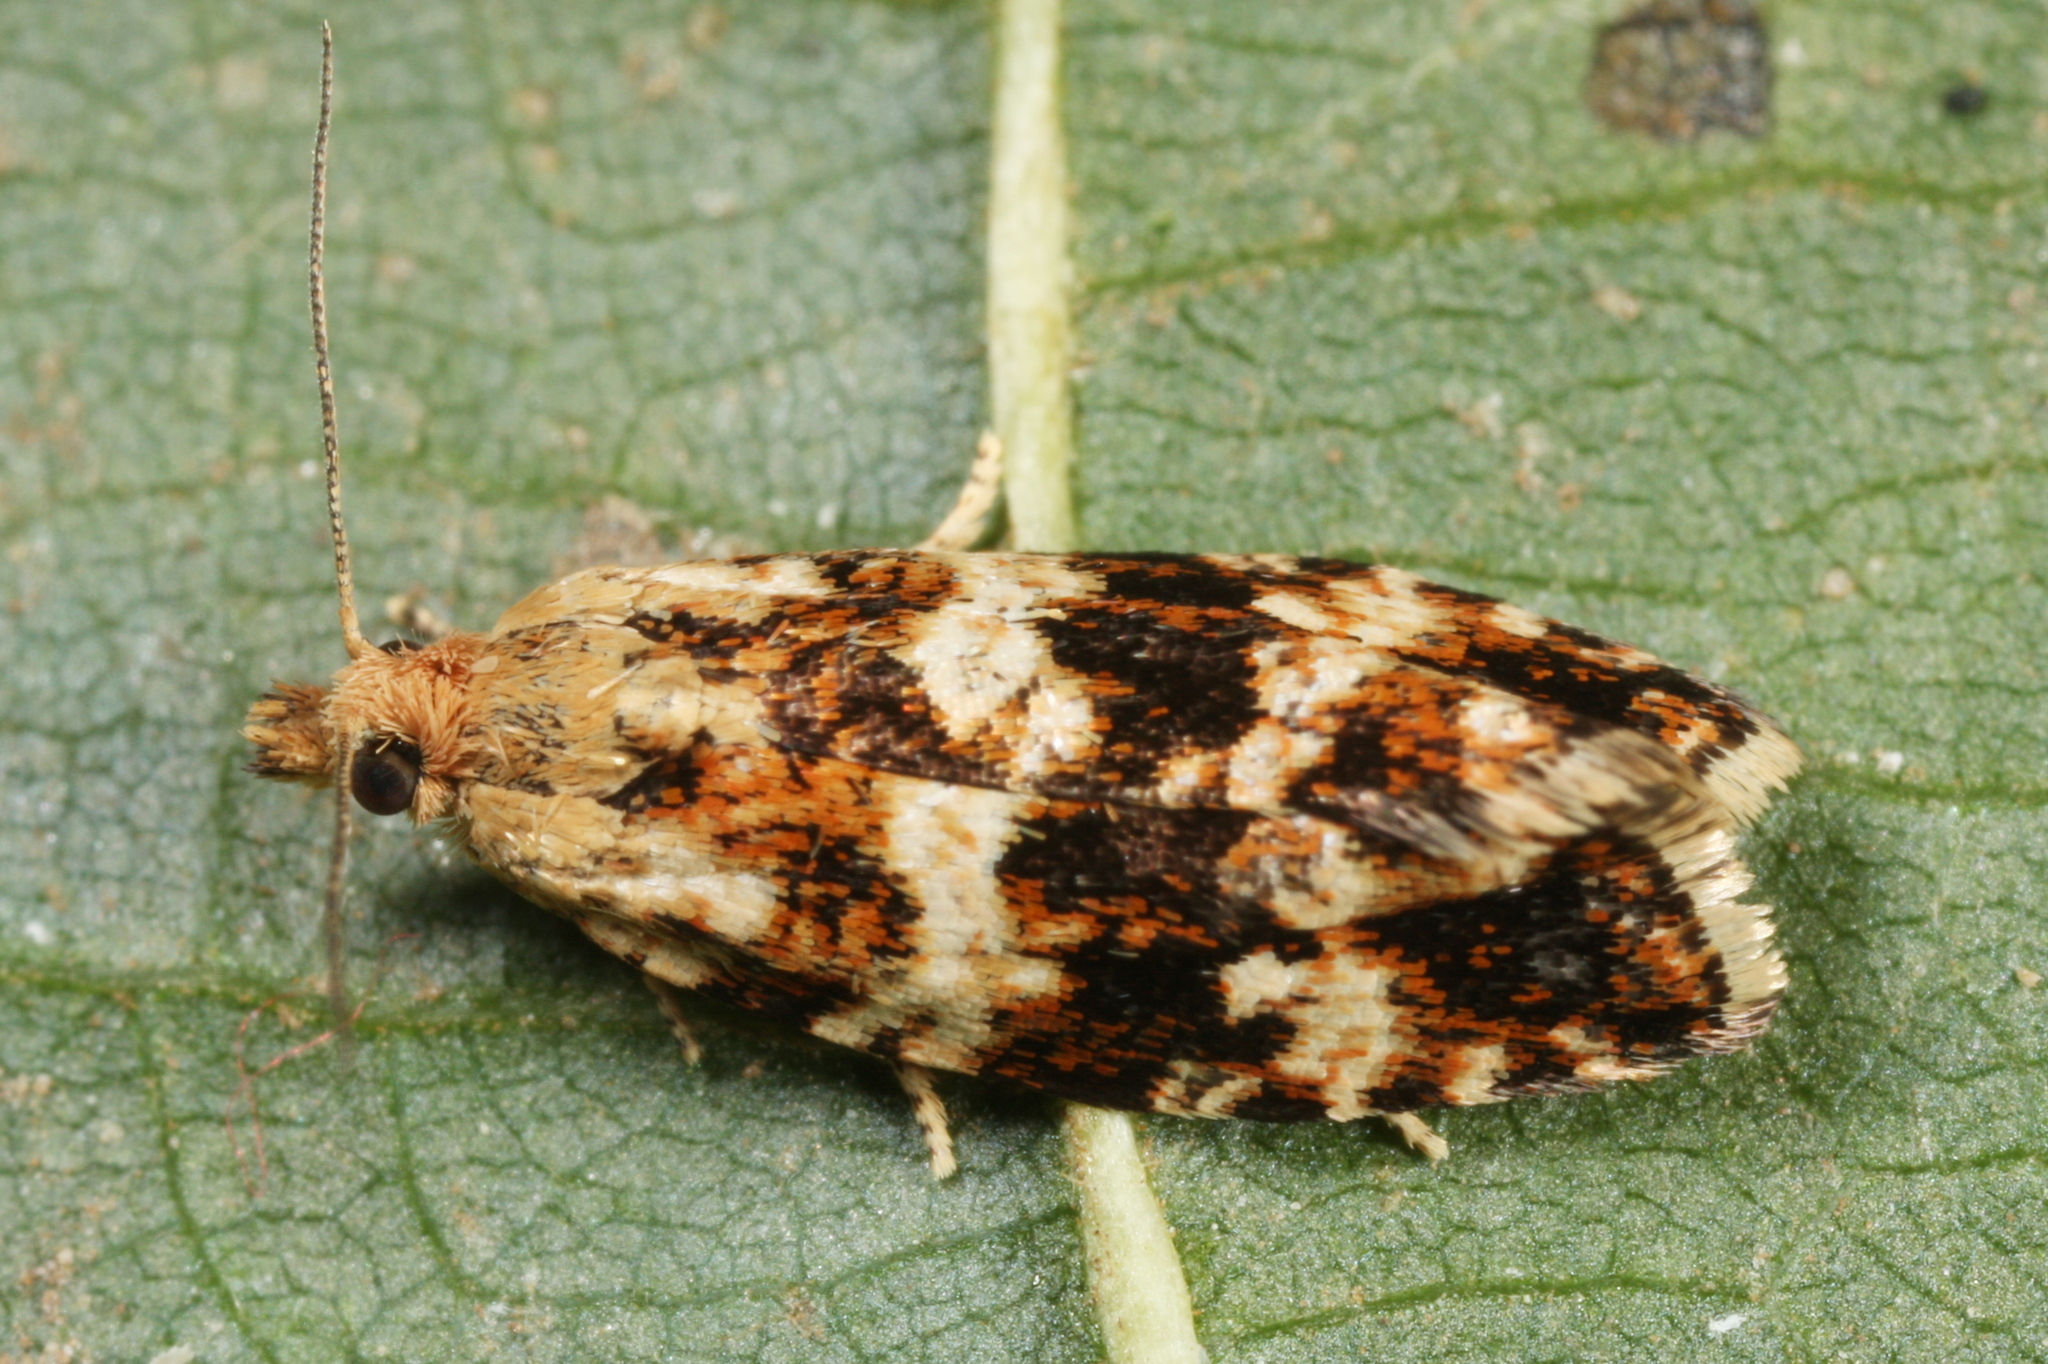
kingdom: Animalia
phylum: Arthropoda
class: Insecta
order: Lepidoptera
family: Tortricidae
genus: Olethreutes
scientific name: Olethreutes palustrana
